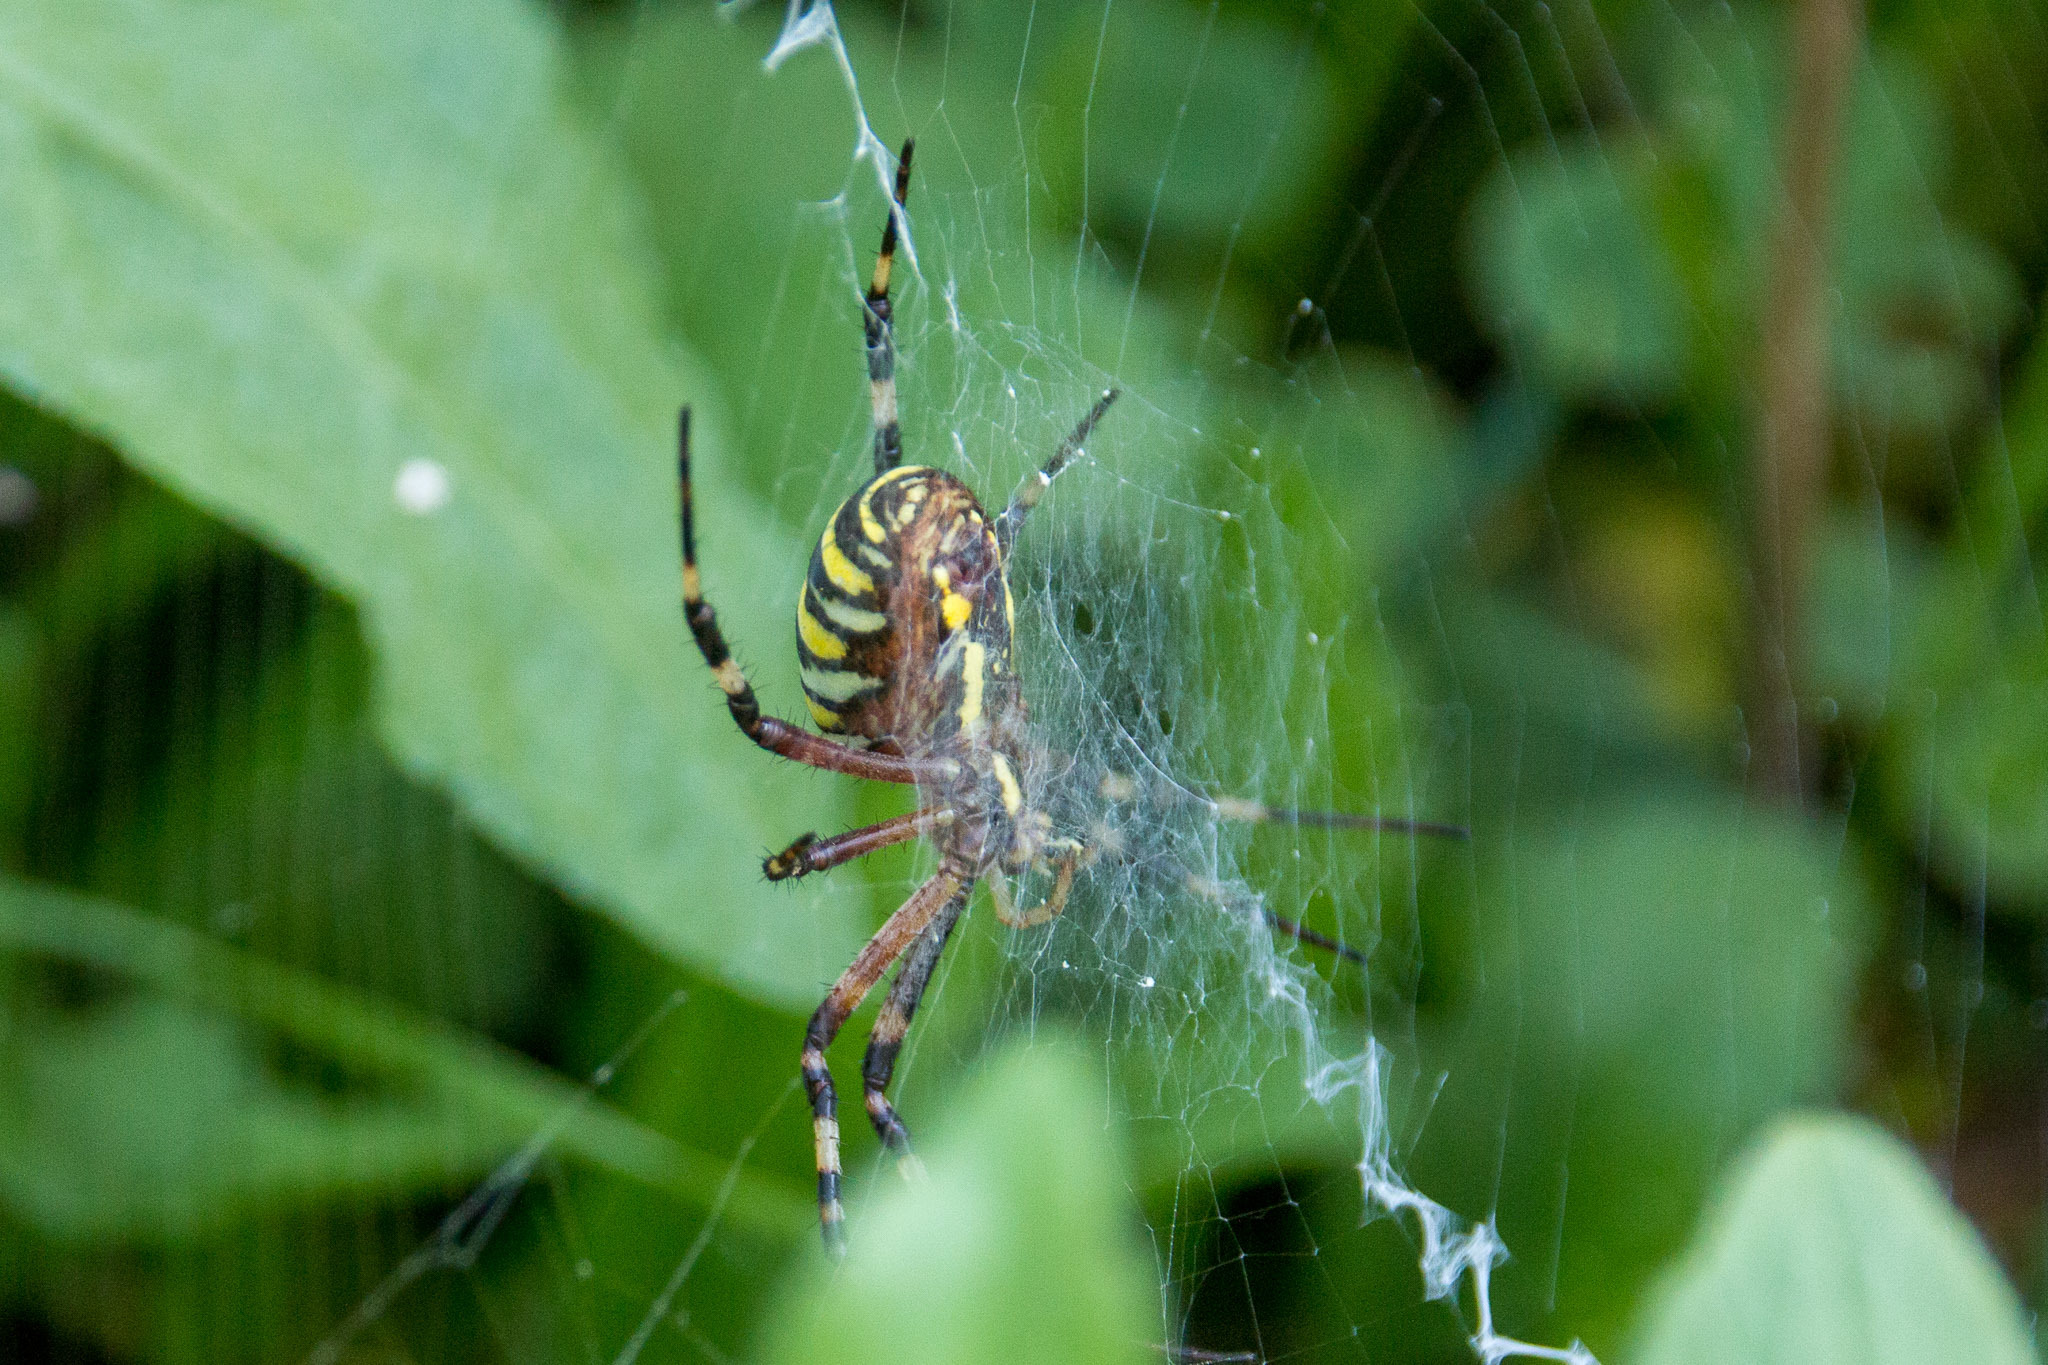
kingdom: Animalia
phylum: Arthropoda
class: Arachnida
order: Araneae
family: Araneidae
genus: Argiope
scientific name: Argiope bruennichi
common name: Wasp spider
